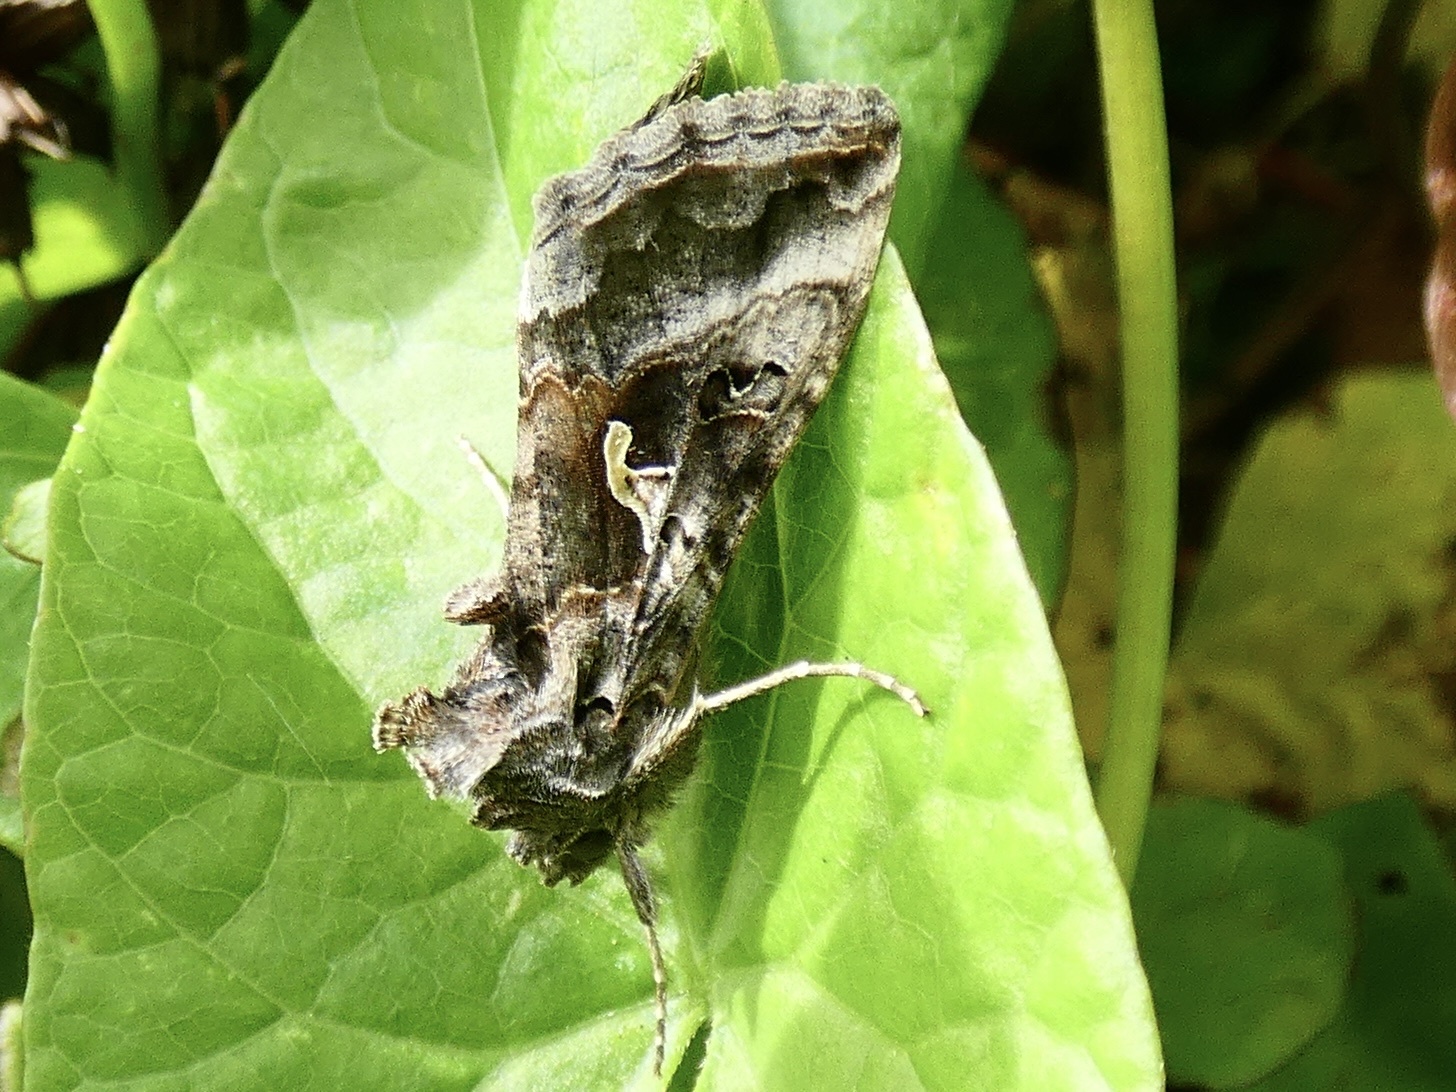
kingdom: Animalia
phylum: Arthropoda
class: Insecta
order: Lepidoptera
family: Noctuidae
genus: Autographa
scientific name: Autographa gamma
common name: Silver y
